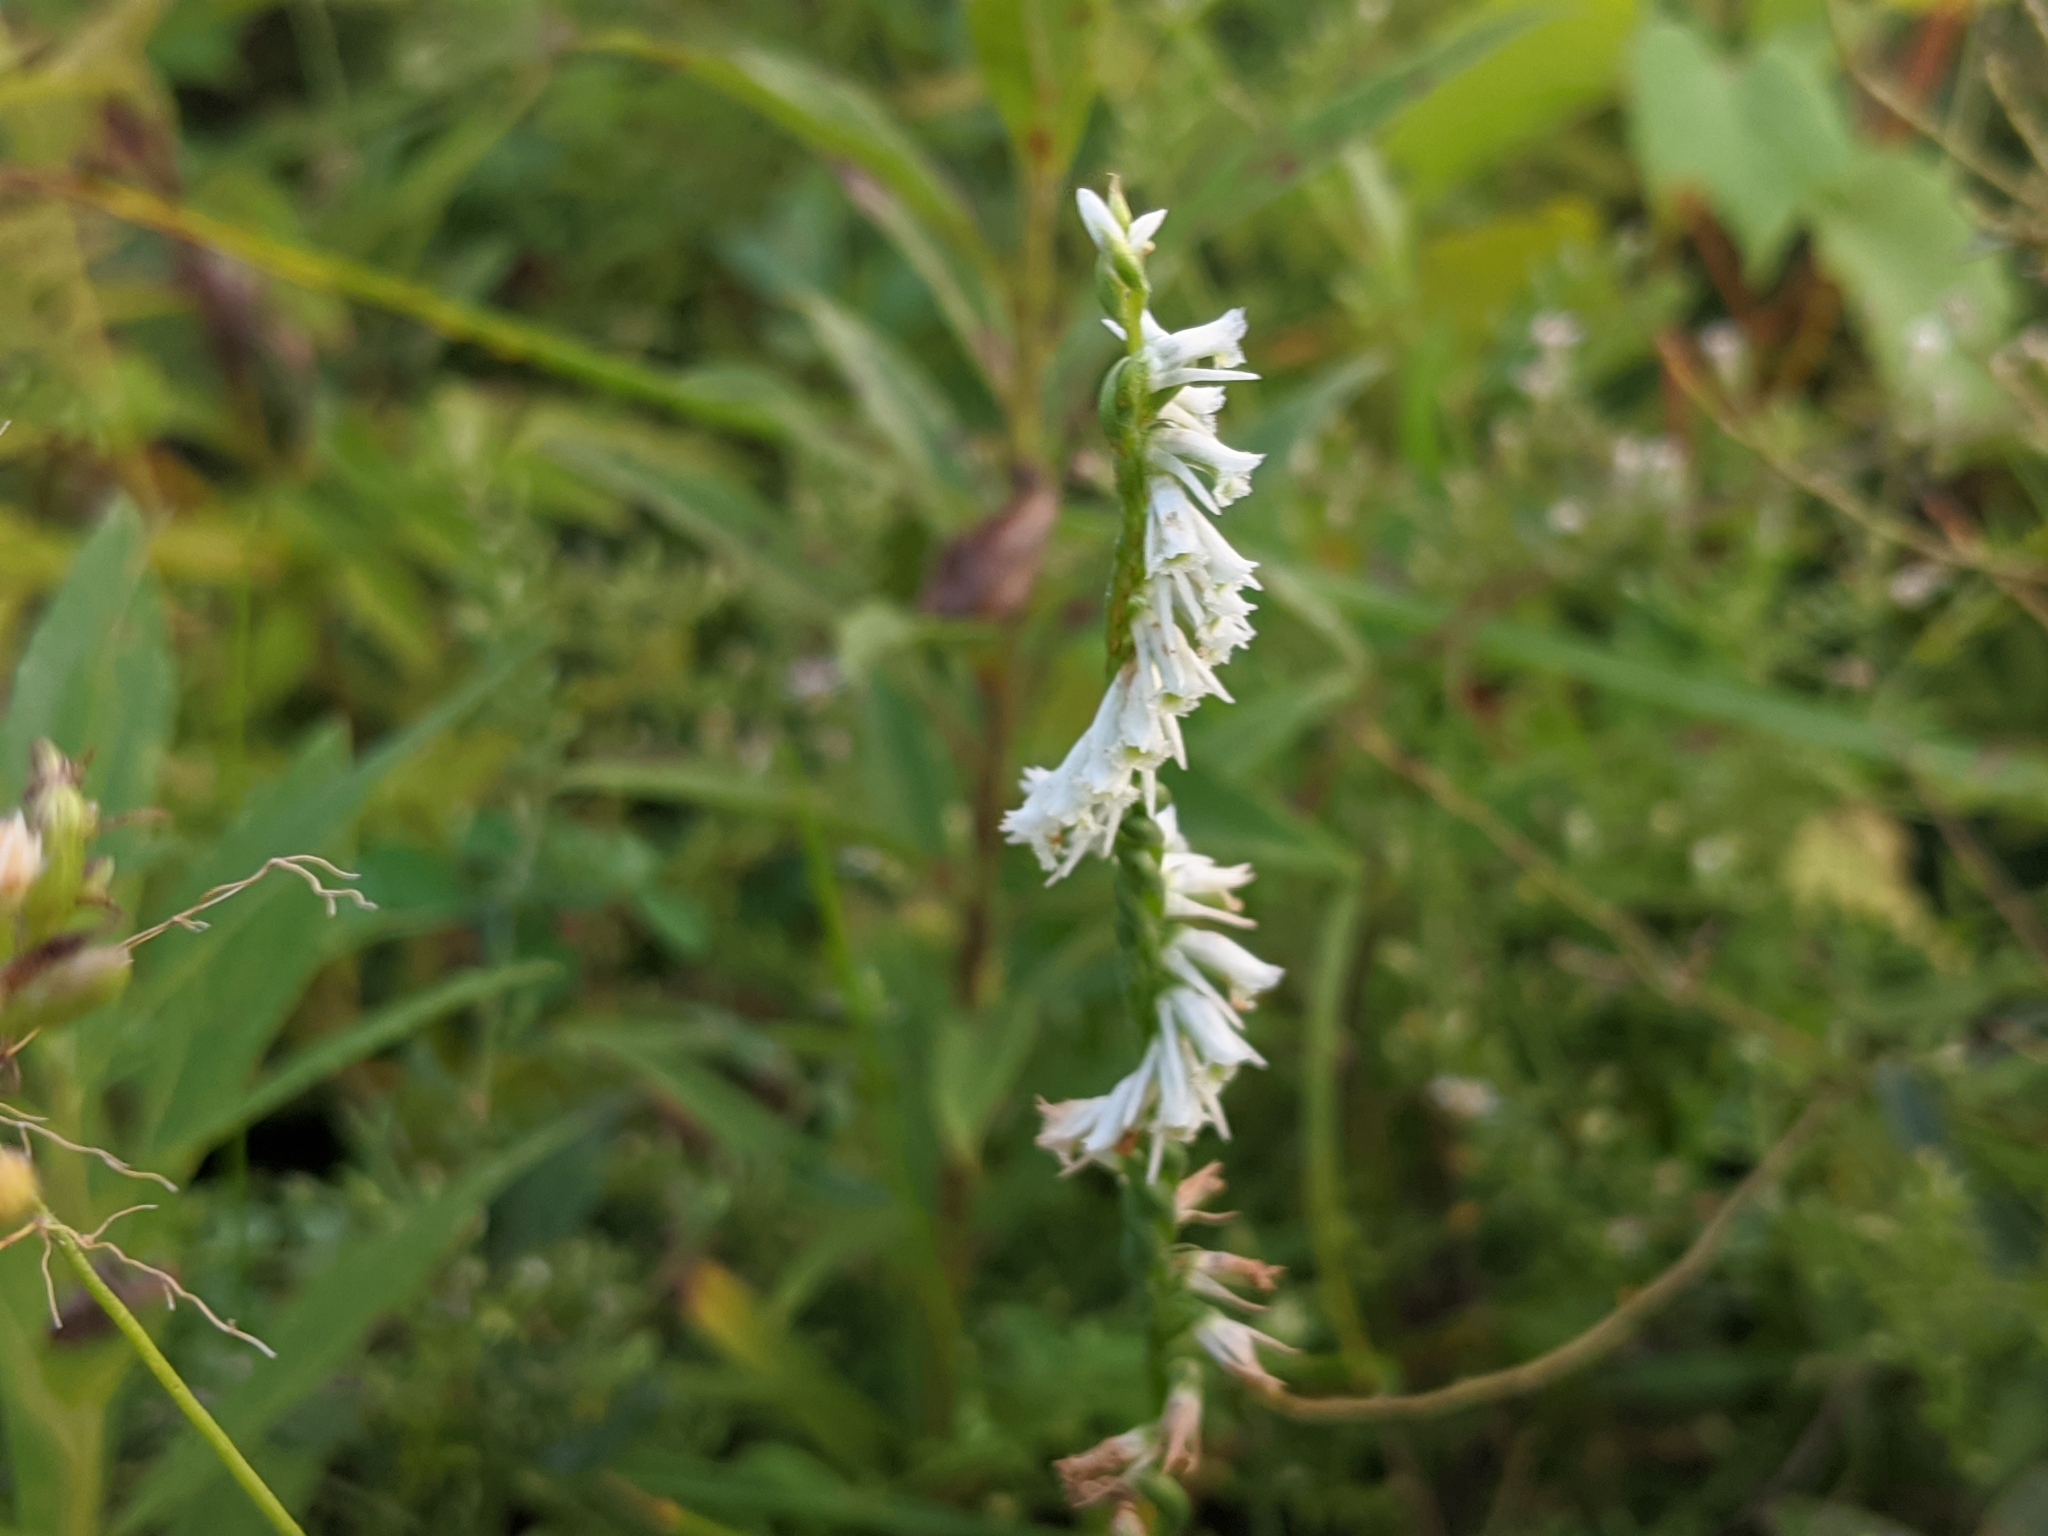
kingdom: Plantae
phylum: Tracheophyta
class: Liliopsida
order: Asparagales
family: Orchidaceae
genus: Spiranthes
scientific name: Spiranthes lacera
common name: Northern slender ladies'-tresses
